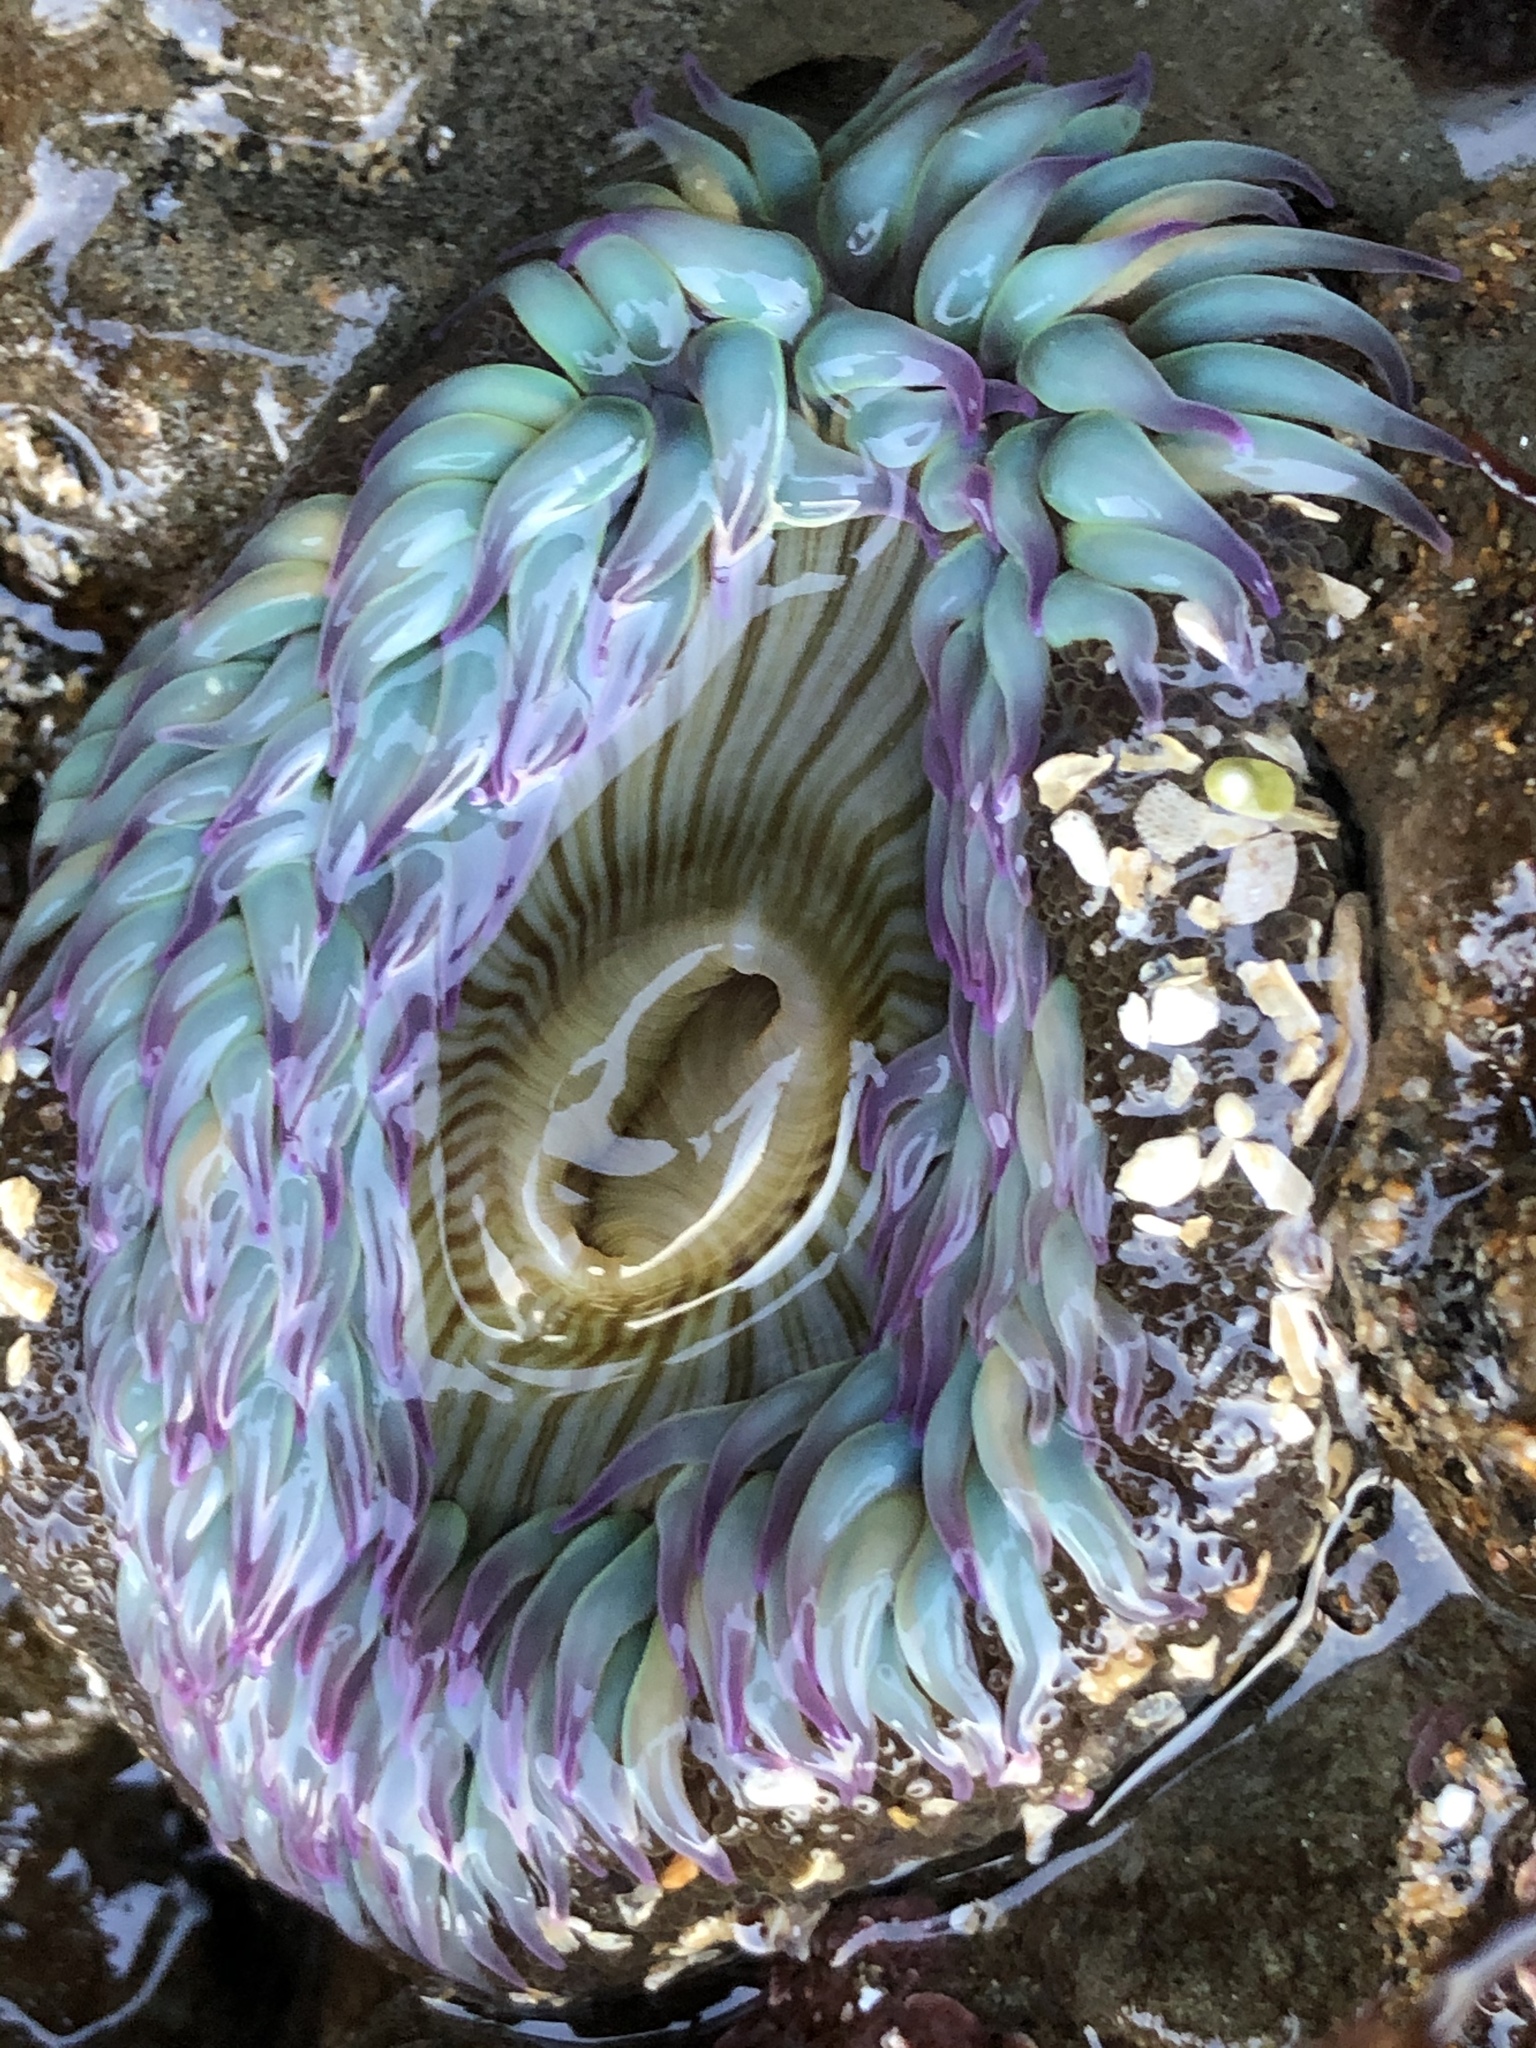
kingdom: Animalia
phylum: Cnidaria
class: Anthozoa
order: Actiniaria
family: Actiniidae
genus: Anthopleura
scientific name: Anthopleura sola
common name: Sun anemone
